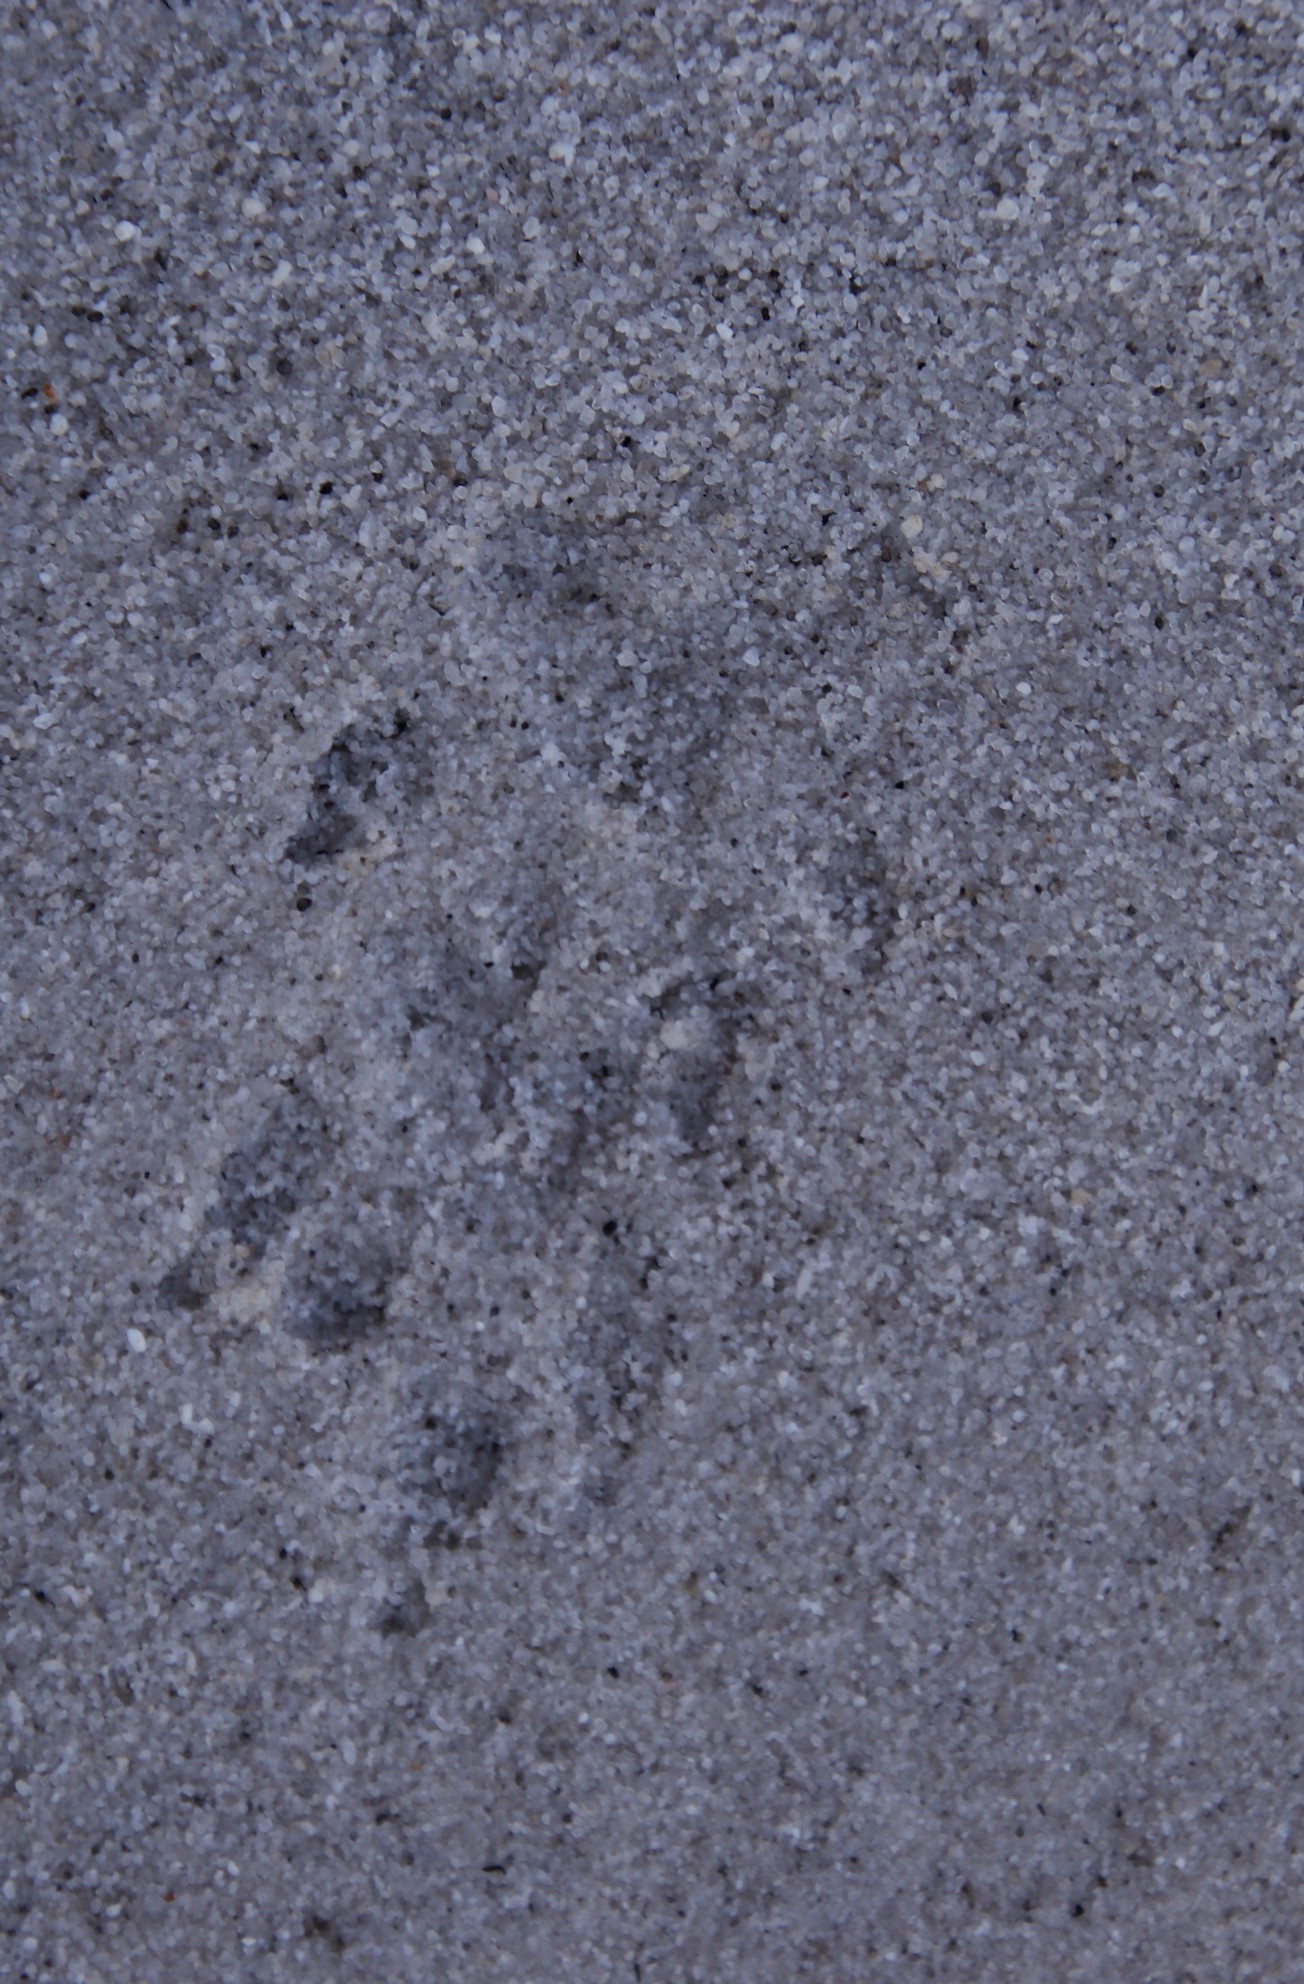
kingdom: Animalia
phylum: Chordata
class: Mammalia
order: Carnivora
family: Herpestidae
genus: Atilax
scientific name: Atilax paludinosus
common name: Marsh mongoose
